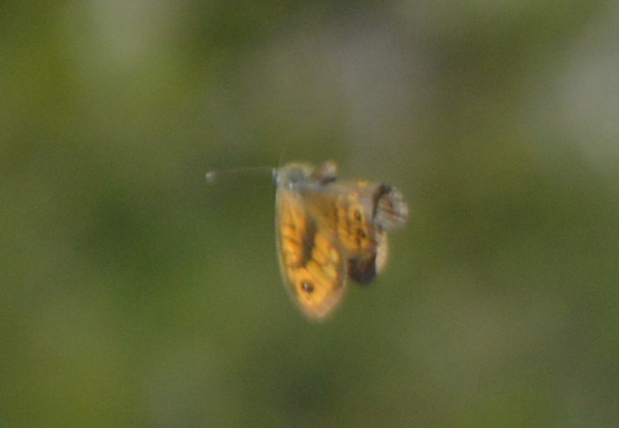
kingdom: Animalia
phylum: Arthropoda
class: Insecta
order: Lepidoptera
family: Nymphalidae
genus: Pararge
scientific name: Pararge Lasiommata megera
